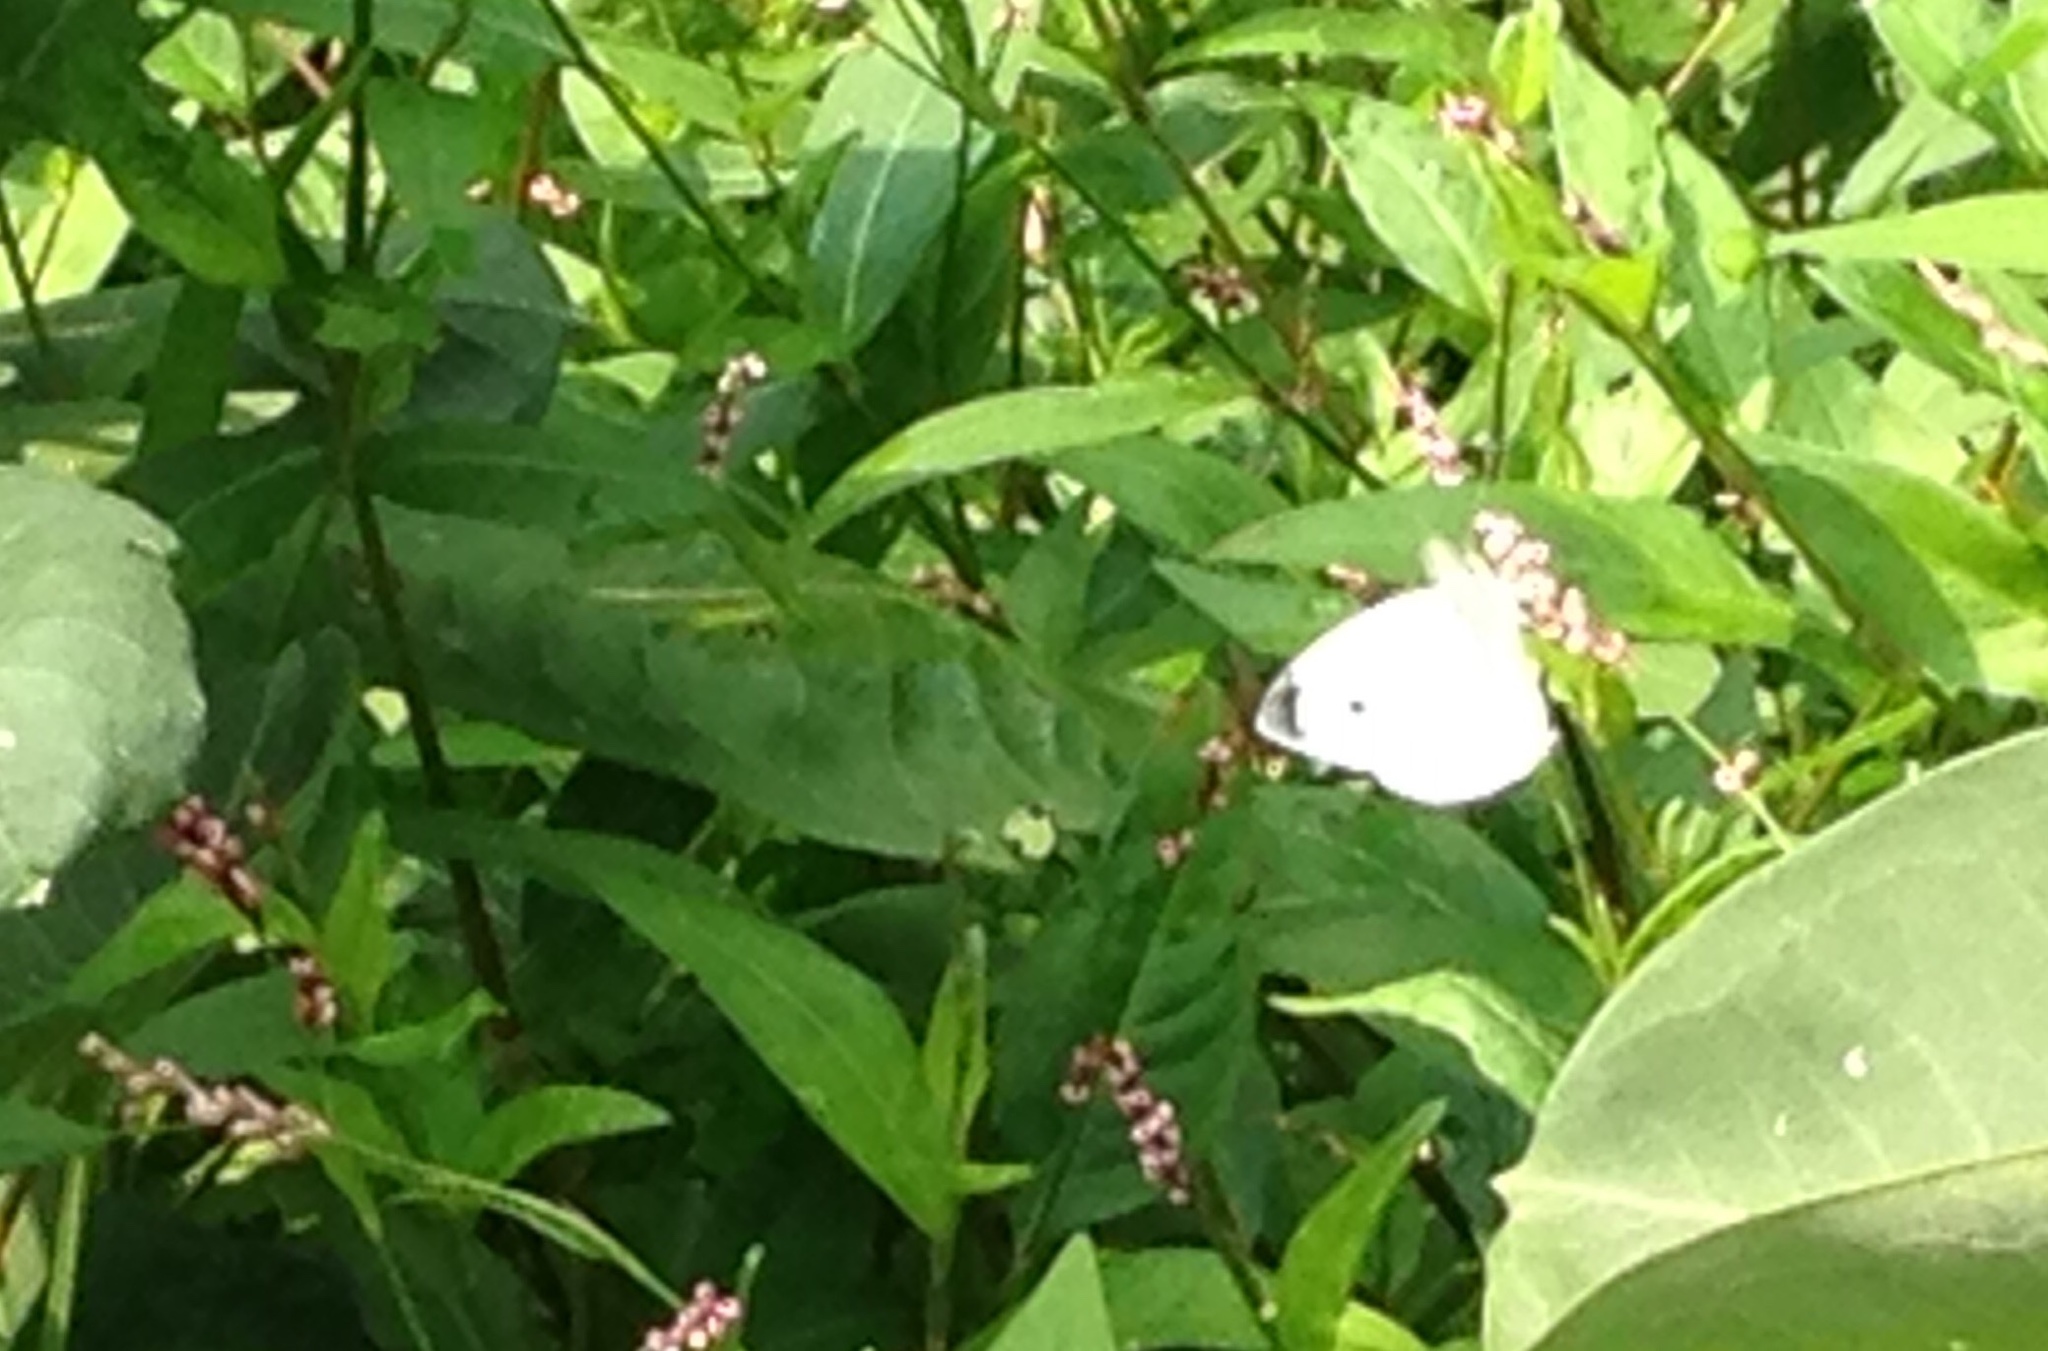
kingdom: Animalia
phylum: Arthropoda
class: Insecta
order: Lepidoptera
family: Pieridae
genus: Pieris
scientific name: Pieris rapae
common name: Small white
